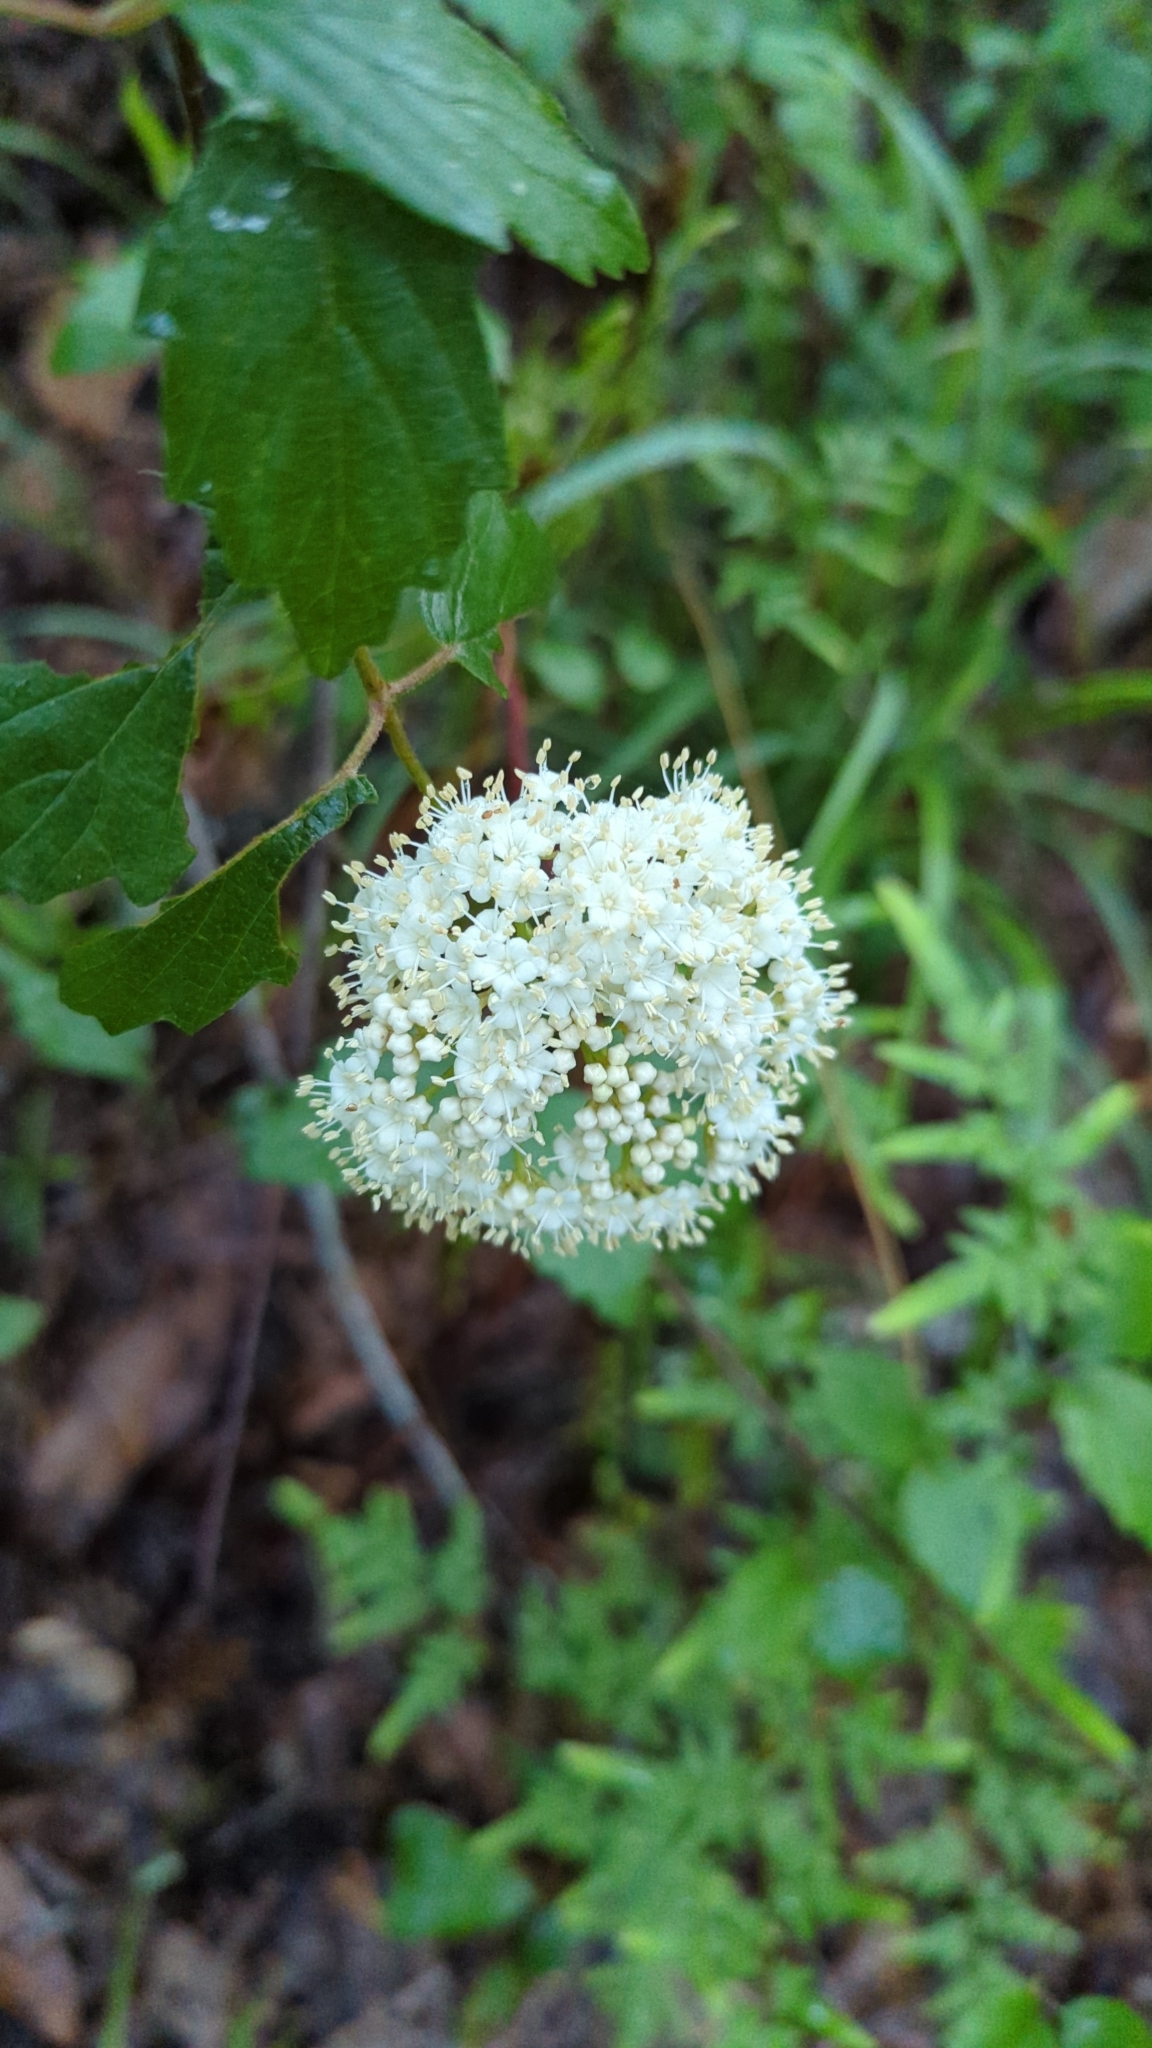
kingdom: Plantae
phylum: Tracheophyta
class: Magnoliopsida
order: Dipsacales
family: Viburnaceae
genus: Viburnum
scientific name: Viburnum scabrellum
